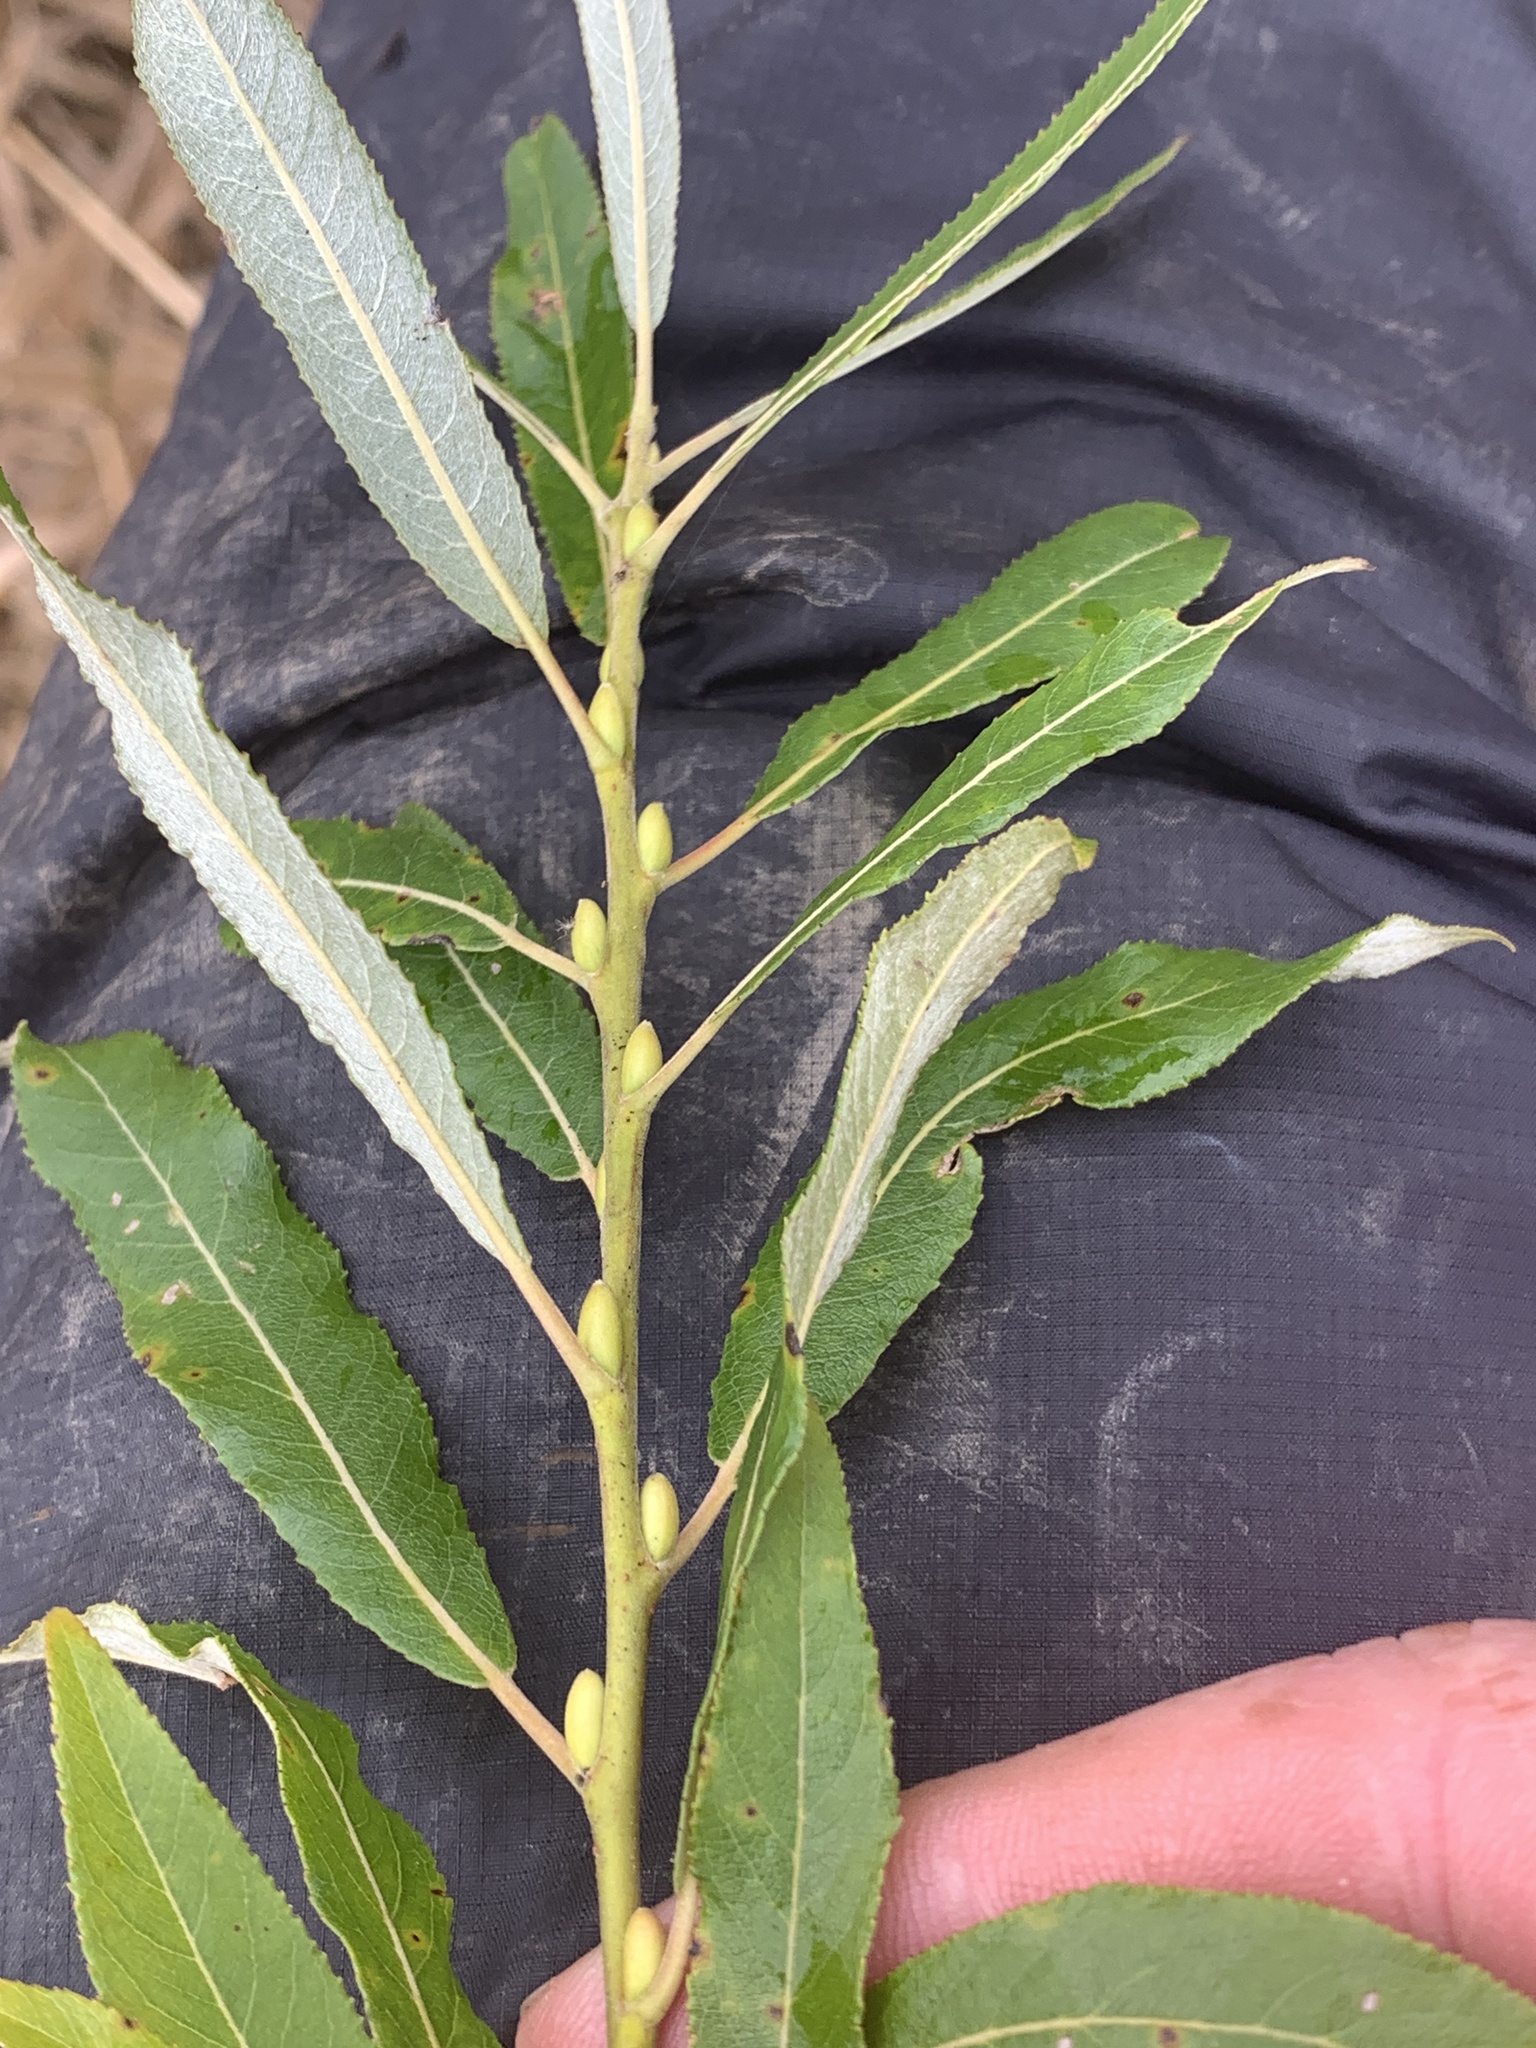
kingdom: Plantae
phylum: Tracheophyta
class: Magnoliopsida
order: Malpighiales
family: Salicaceae
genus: Salix
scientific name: Salix petiolaris
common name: Slender willow
